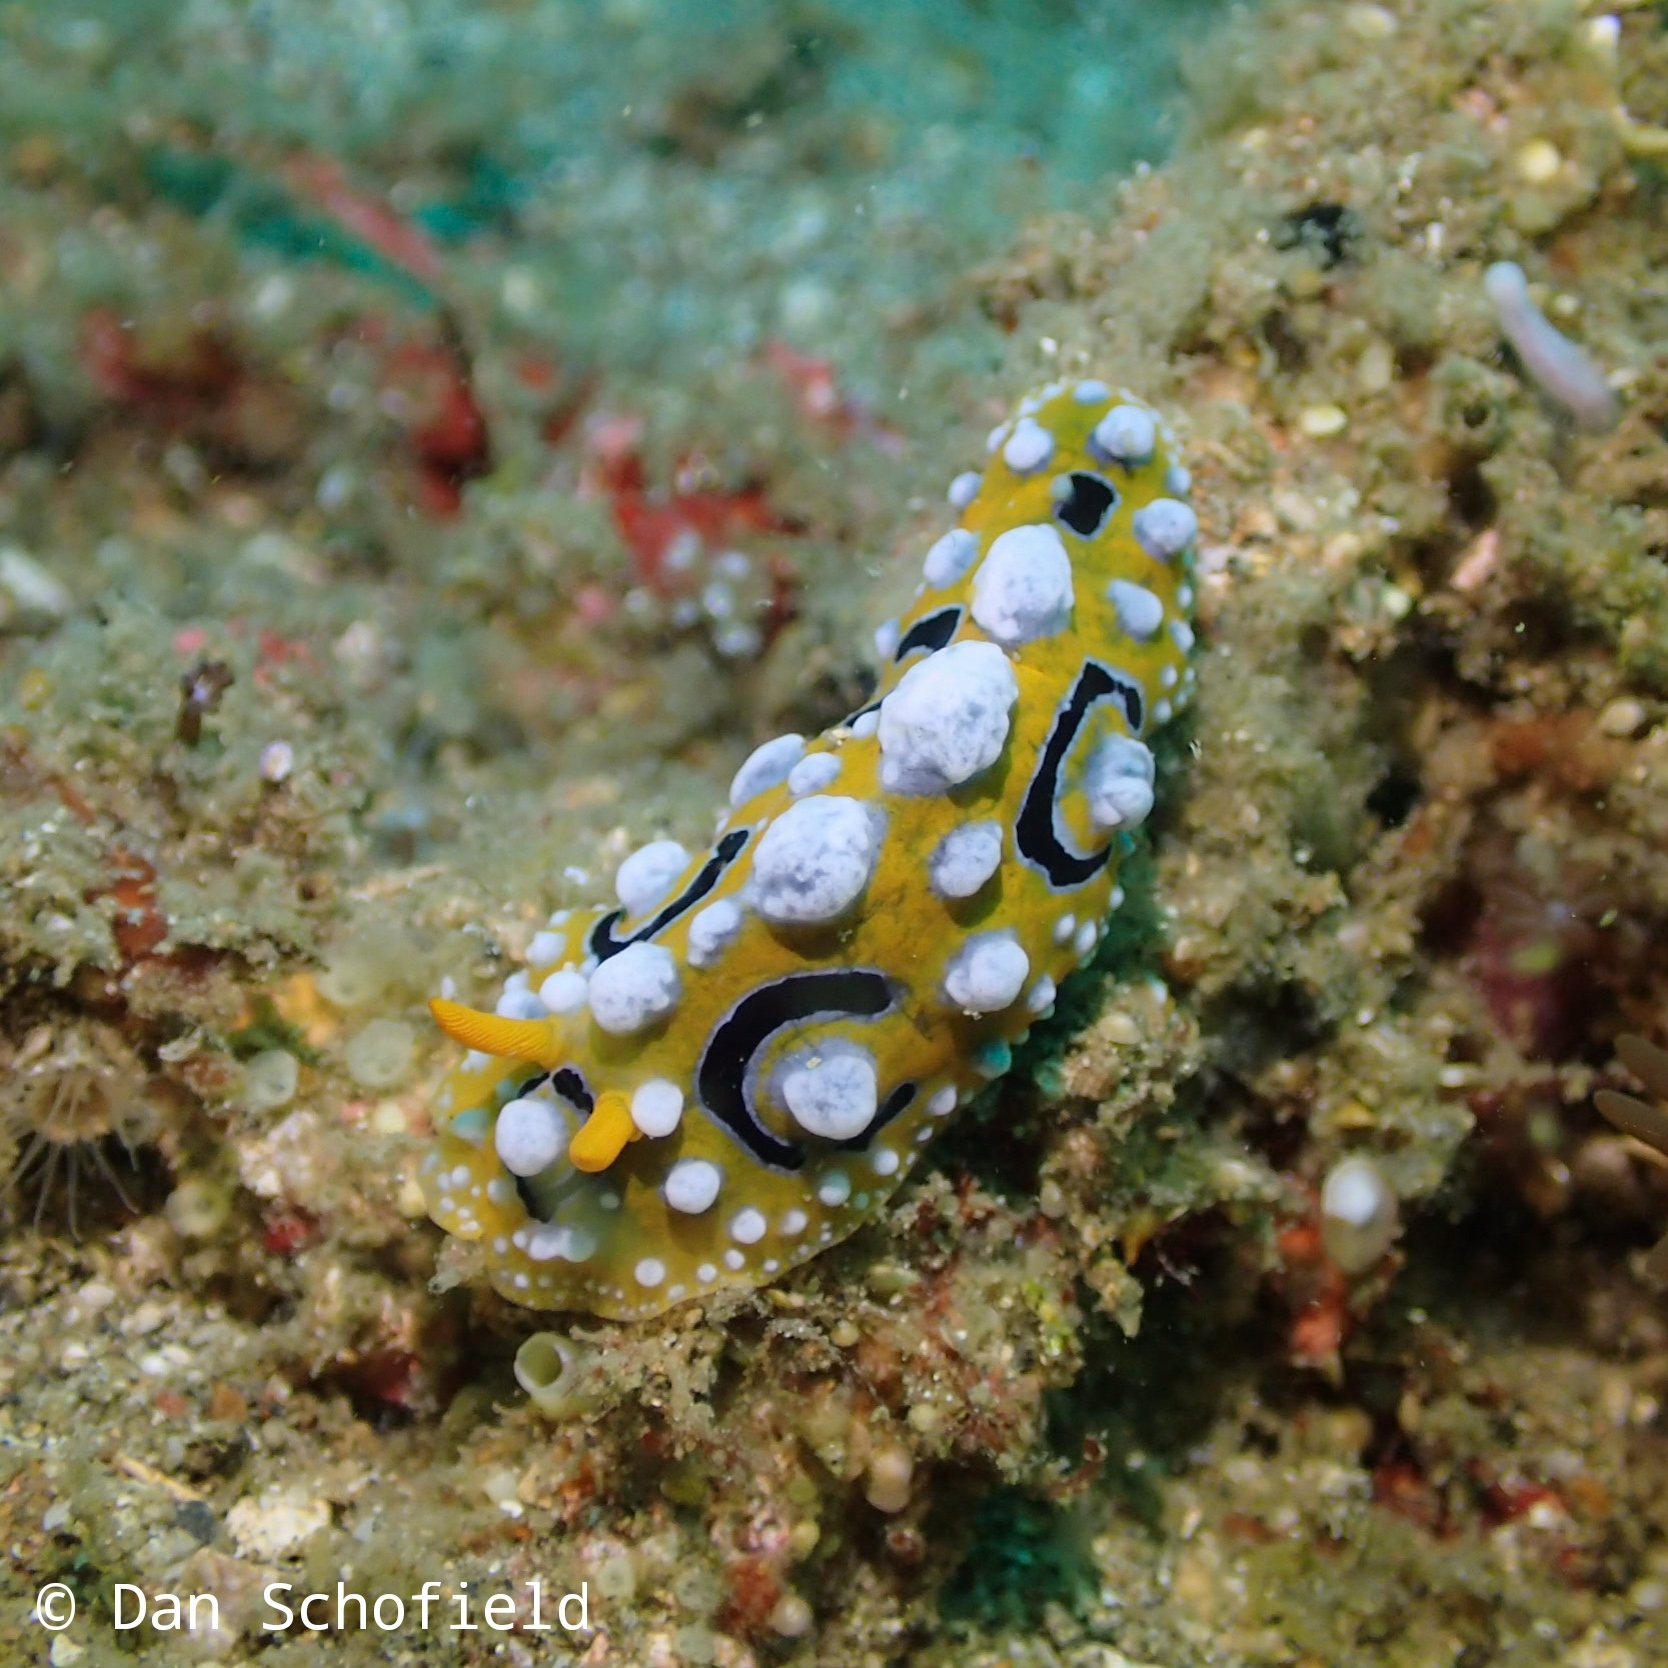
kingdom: Animalia
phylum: Mollusca
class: Gastropoda
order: Nudibranchia
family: Phyllidiidae
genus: Phyllidia
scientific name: Phyllidia ocellata
